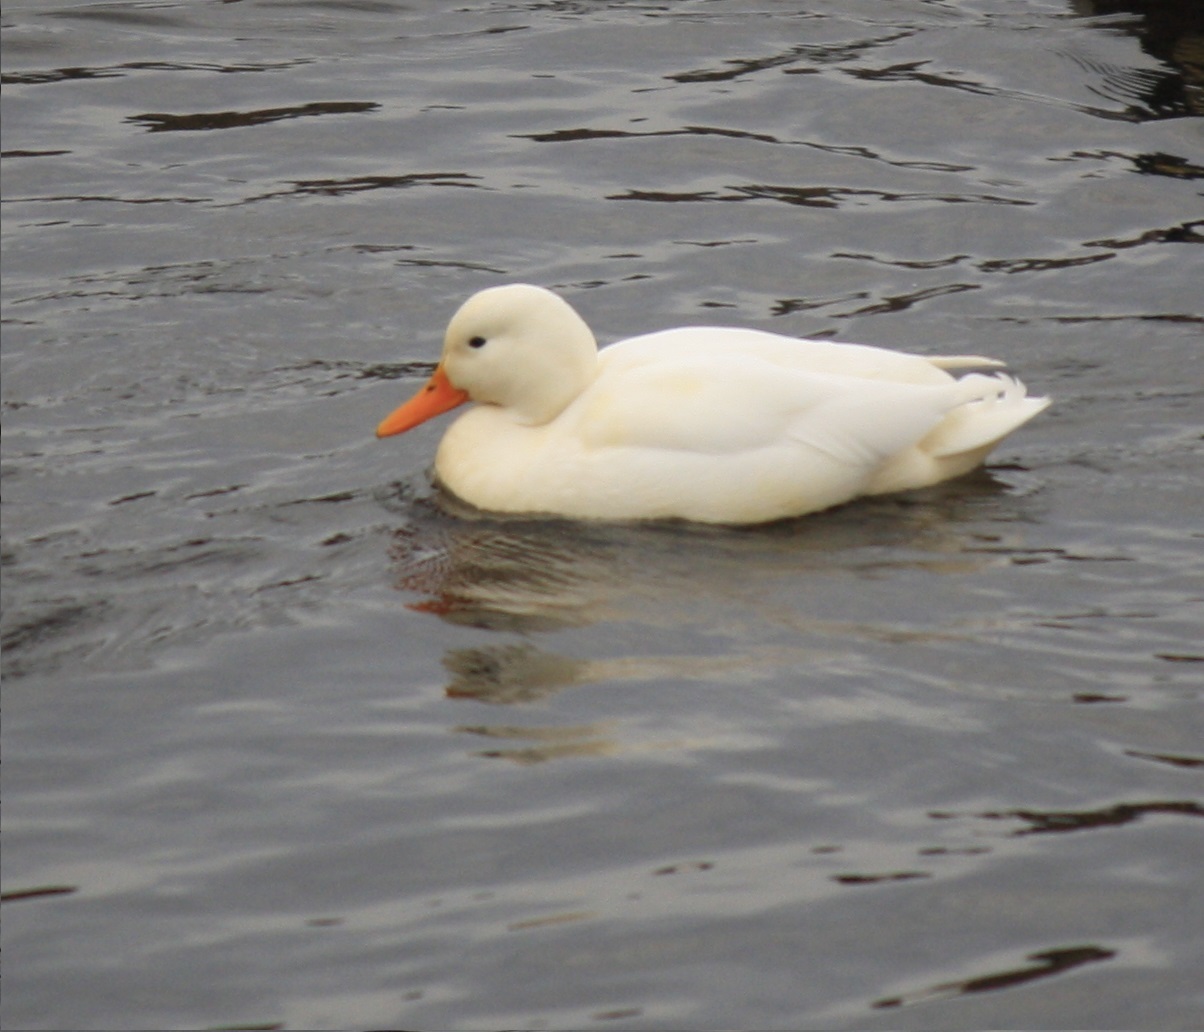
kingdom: Animalia
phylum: Chordata
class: Aves
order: Anseriformes
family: Anatidae
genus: Anas
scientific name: Anas platyrhynchos
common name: Mallard
